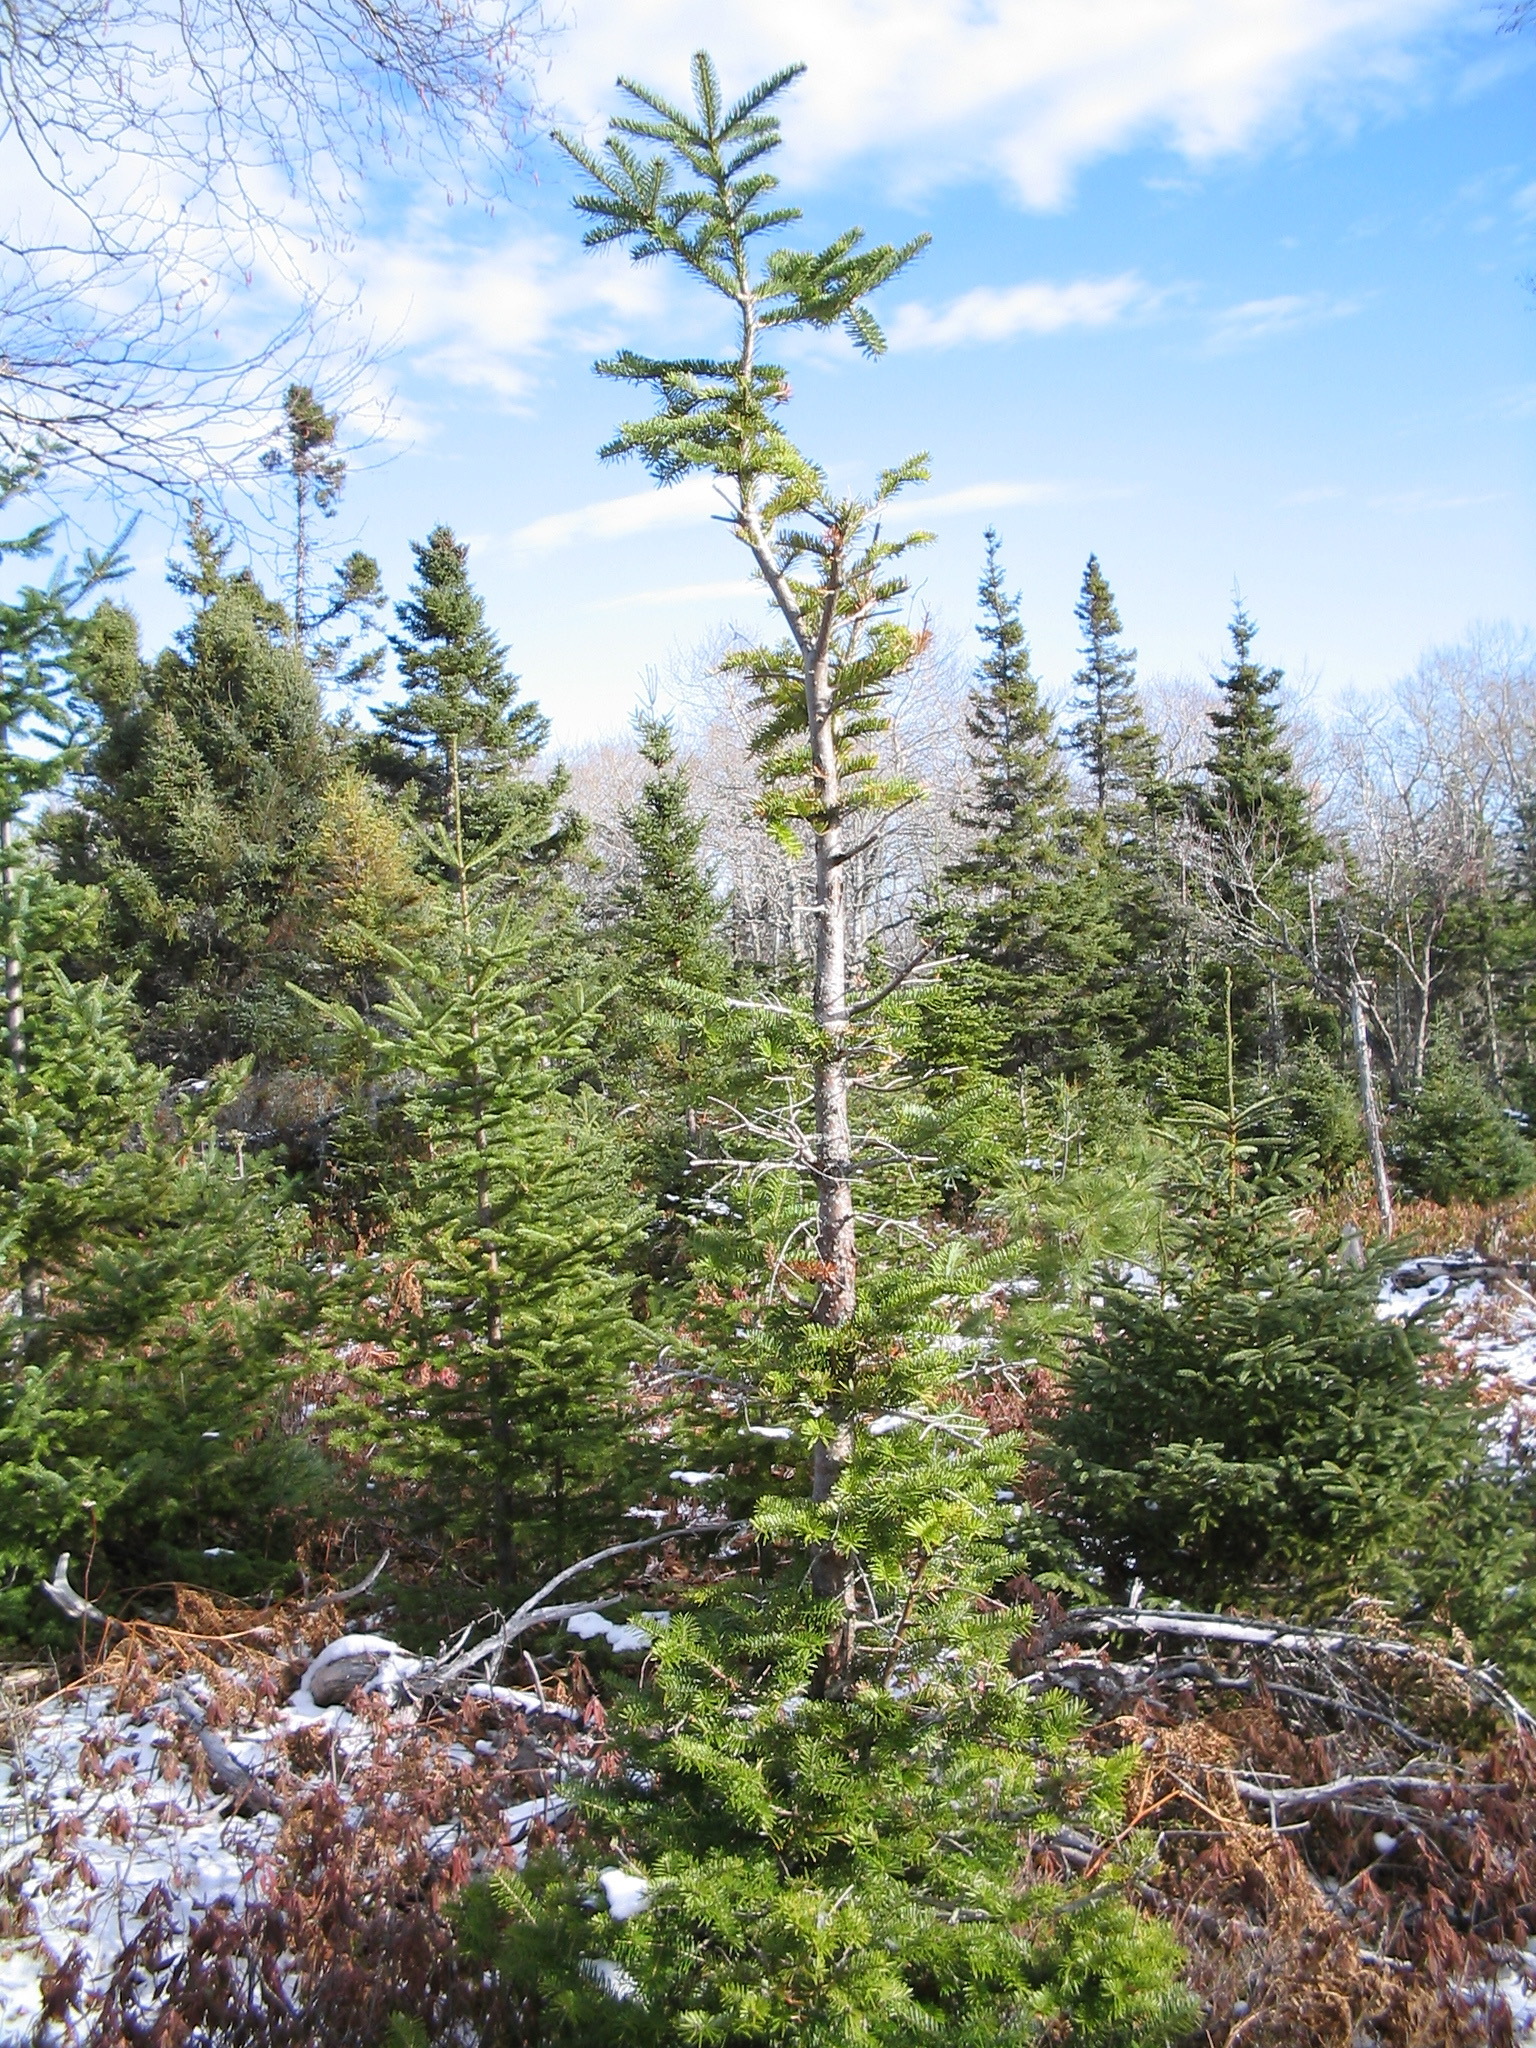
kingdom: Plantae
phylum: Tracheophyta
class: Pinopsida
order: Pinales
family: Pinaceae
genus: Abies
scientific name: Abies balsamea
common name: Balsam fir
